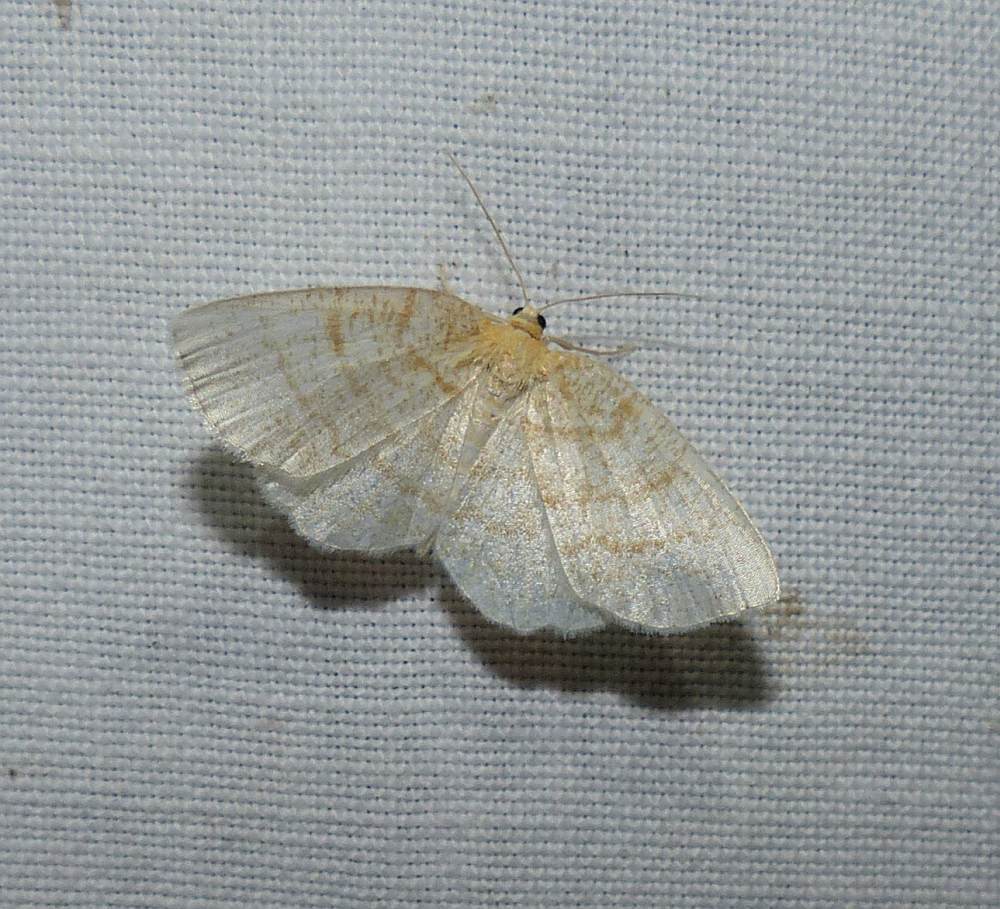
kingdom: Animalia
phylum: Arthropoda
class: Insecta
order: Lepidoptera
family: Geometridae
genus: Cabera
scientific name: Cabera erythemaria
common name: Yellow-dusted cream moth
